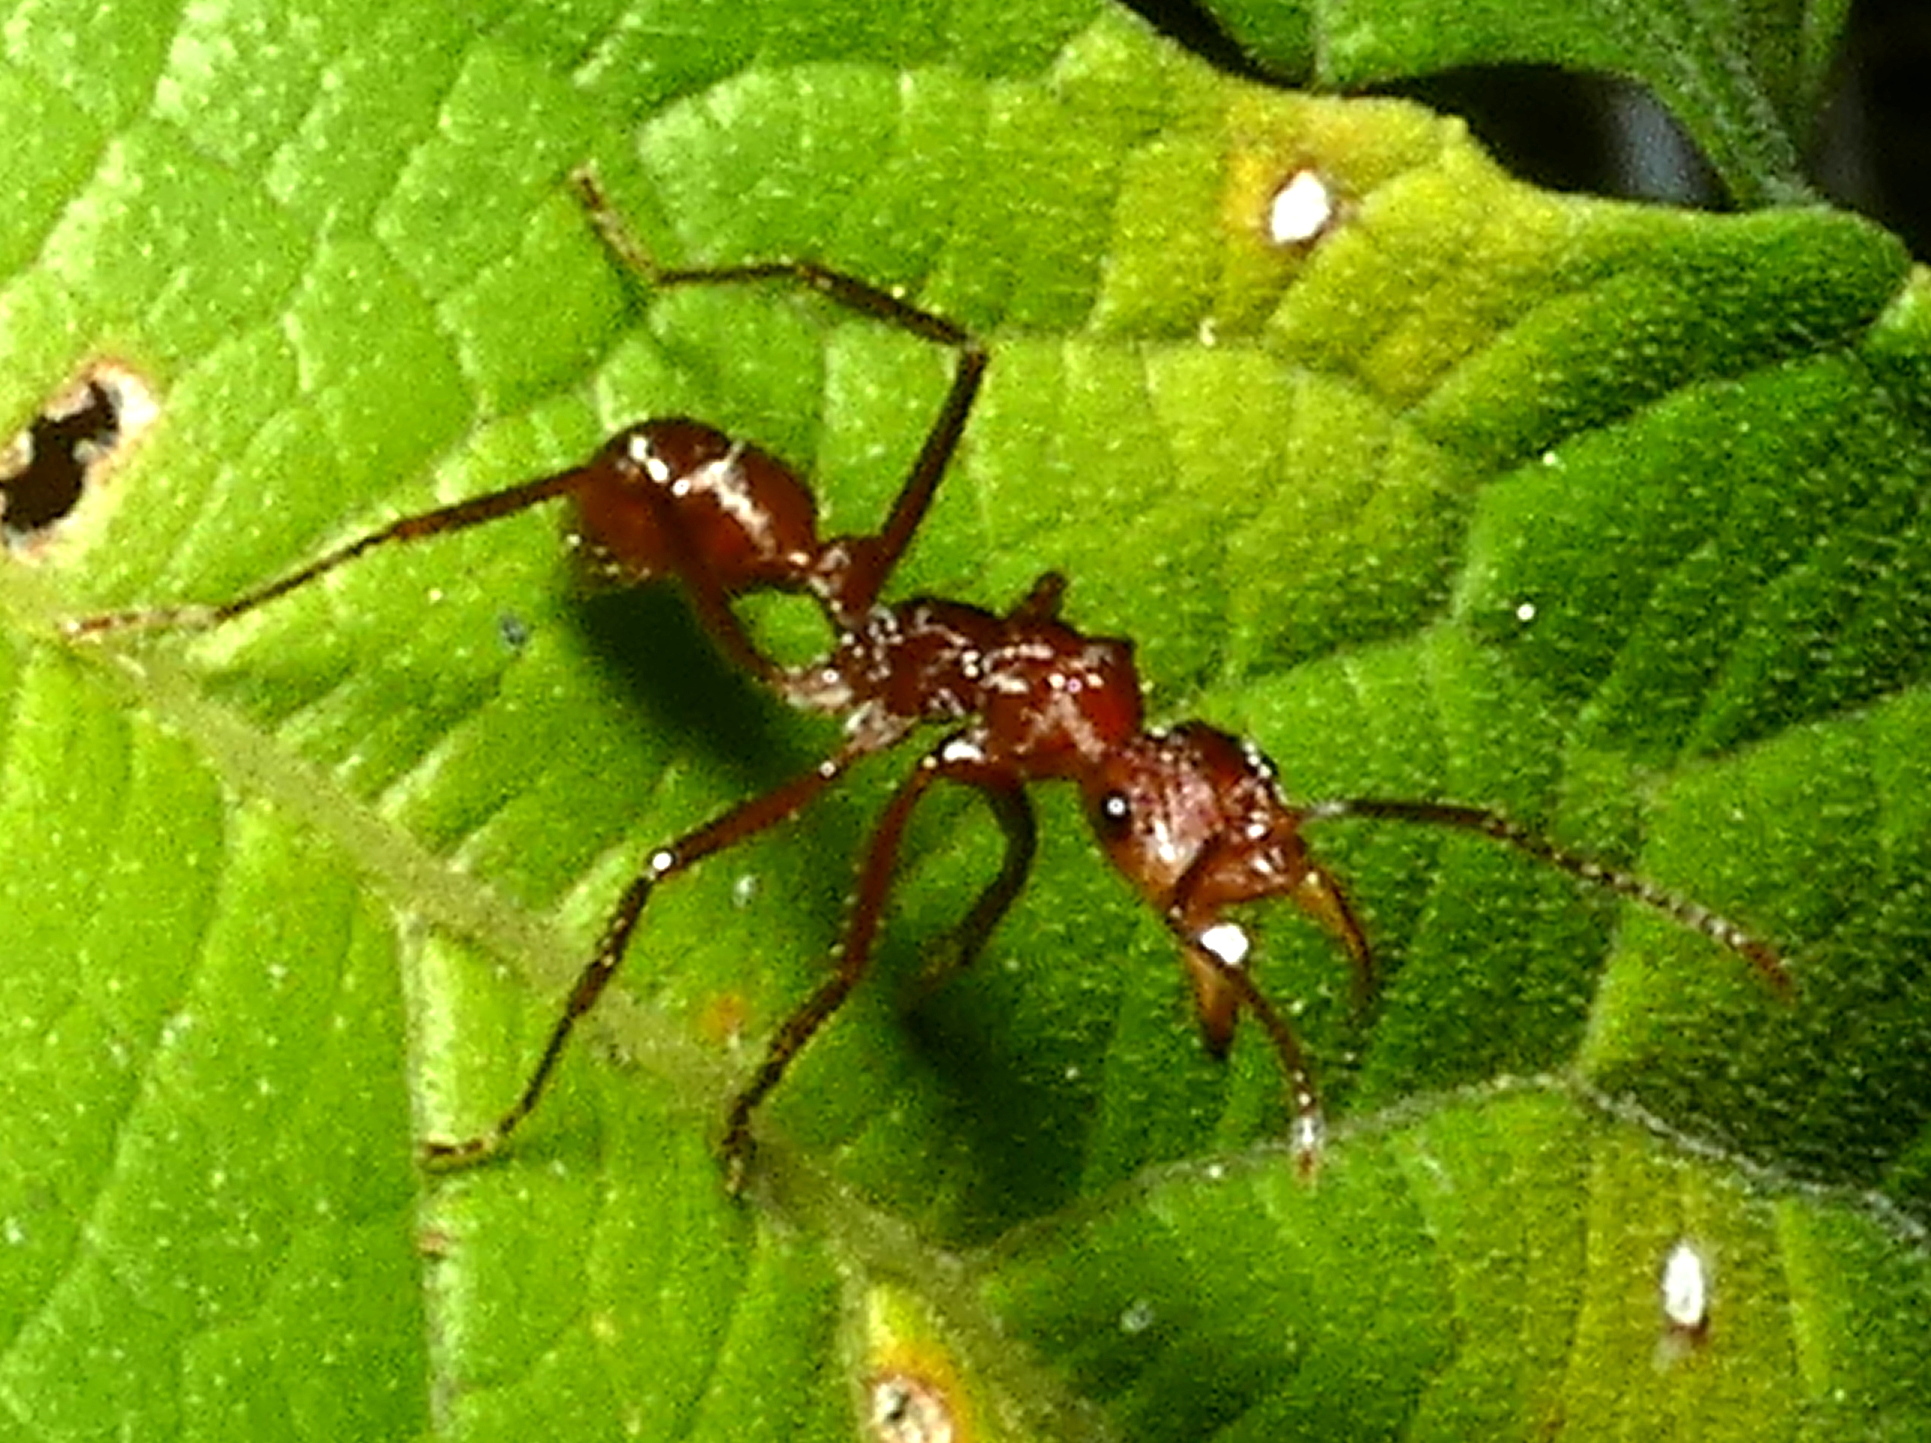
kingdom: Animalia
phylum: Arthropoda
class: Insecta
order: Hymenoptera
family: Formicidae
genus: Ectatomma
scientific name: Ectatomma tuberculatum
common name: Ant
